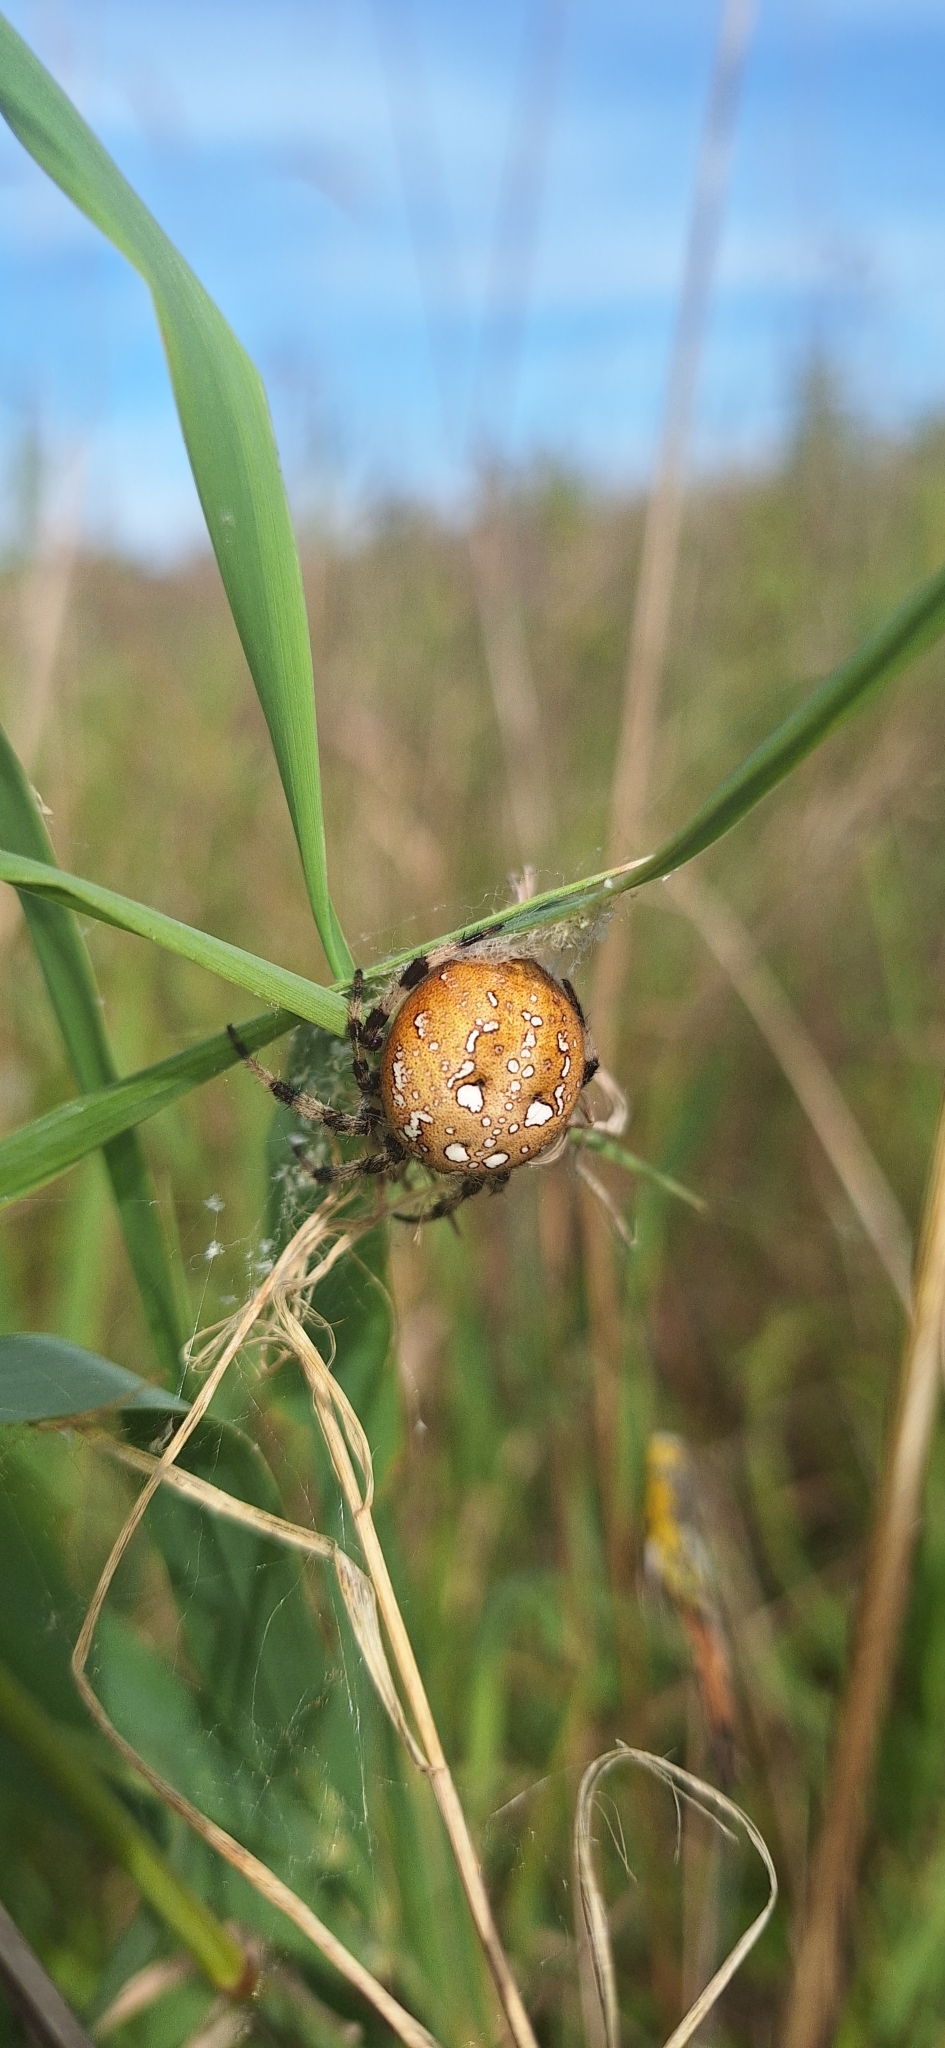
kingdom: Animalia
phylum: Arthropoda
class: Arachnida
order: Araneae
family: Araneidae
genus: Araneus
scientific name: Araneus quadratus
